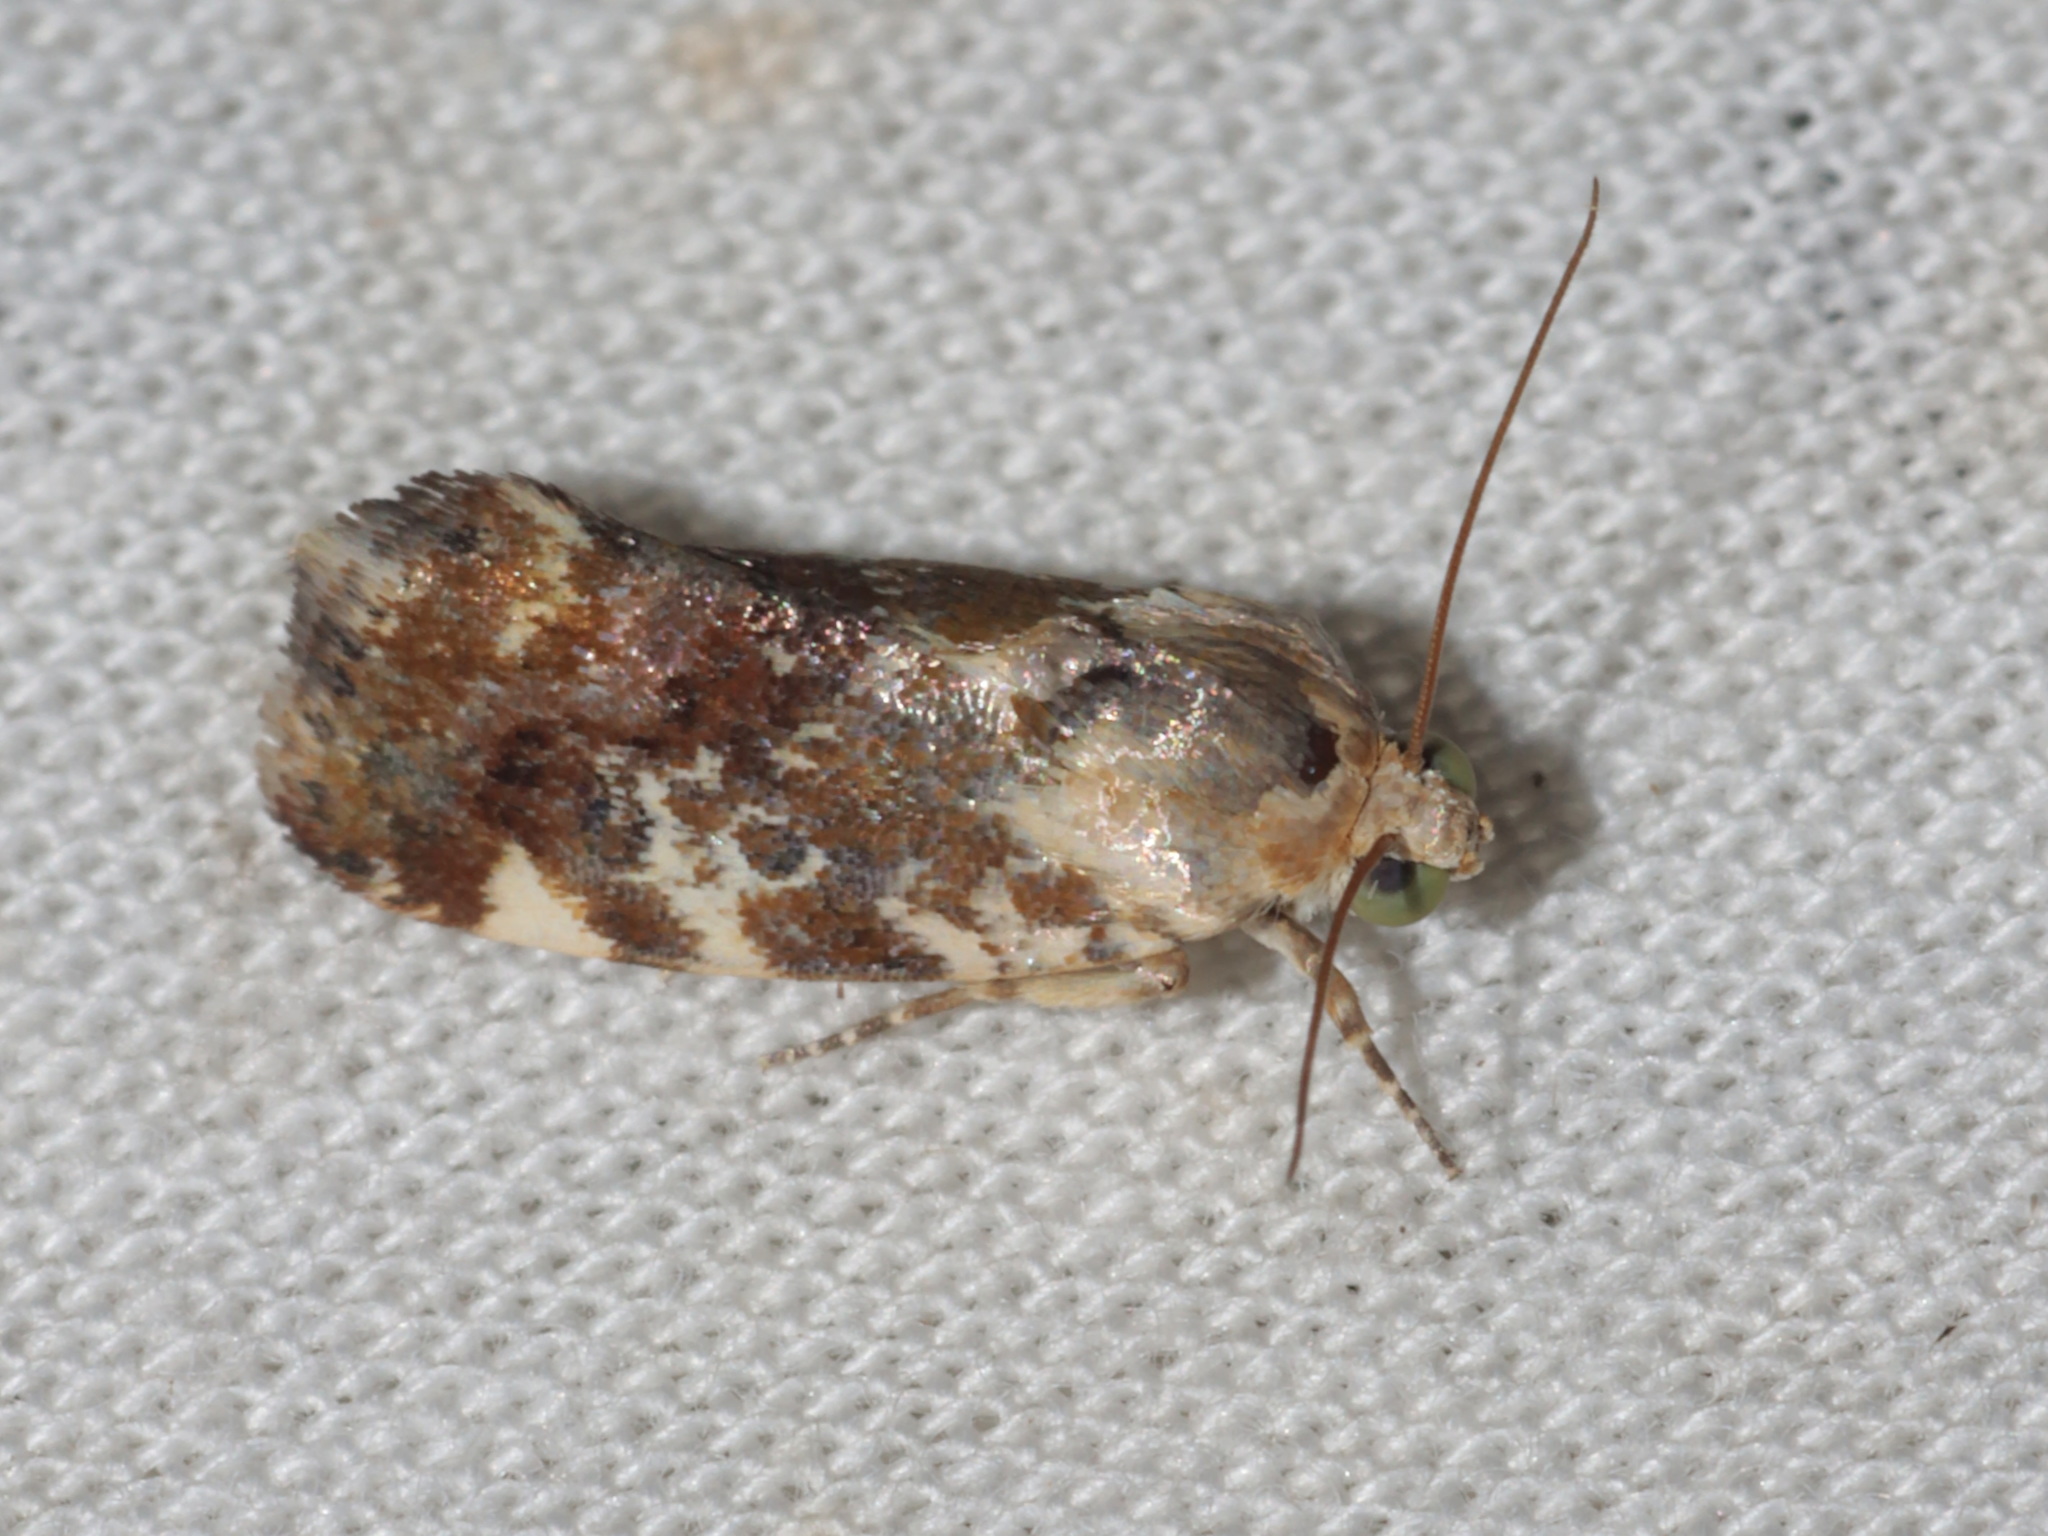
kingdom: Animalia
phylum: Arthropoda
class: Insecta
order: Lepidoptera
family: Noctuidae
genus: Acontia
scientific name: Acontia marmoralis
